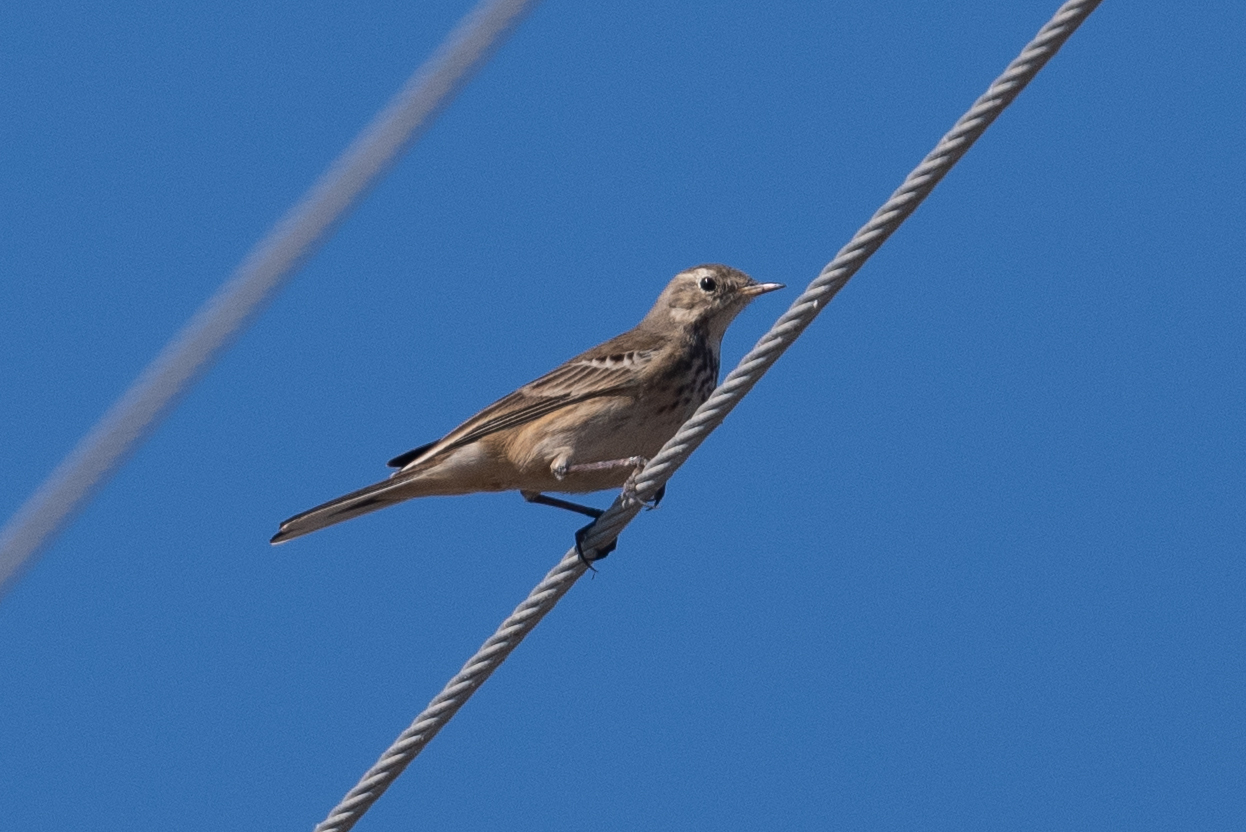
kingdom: Animalia
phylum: Chordata
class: Aves
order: Passeriformes
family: Motacillidae
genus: Anthus
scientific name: Anthus rubescens
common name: Buff-bellied pipit
